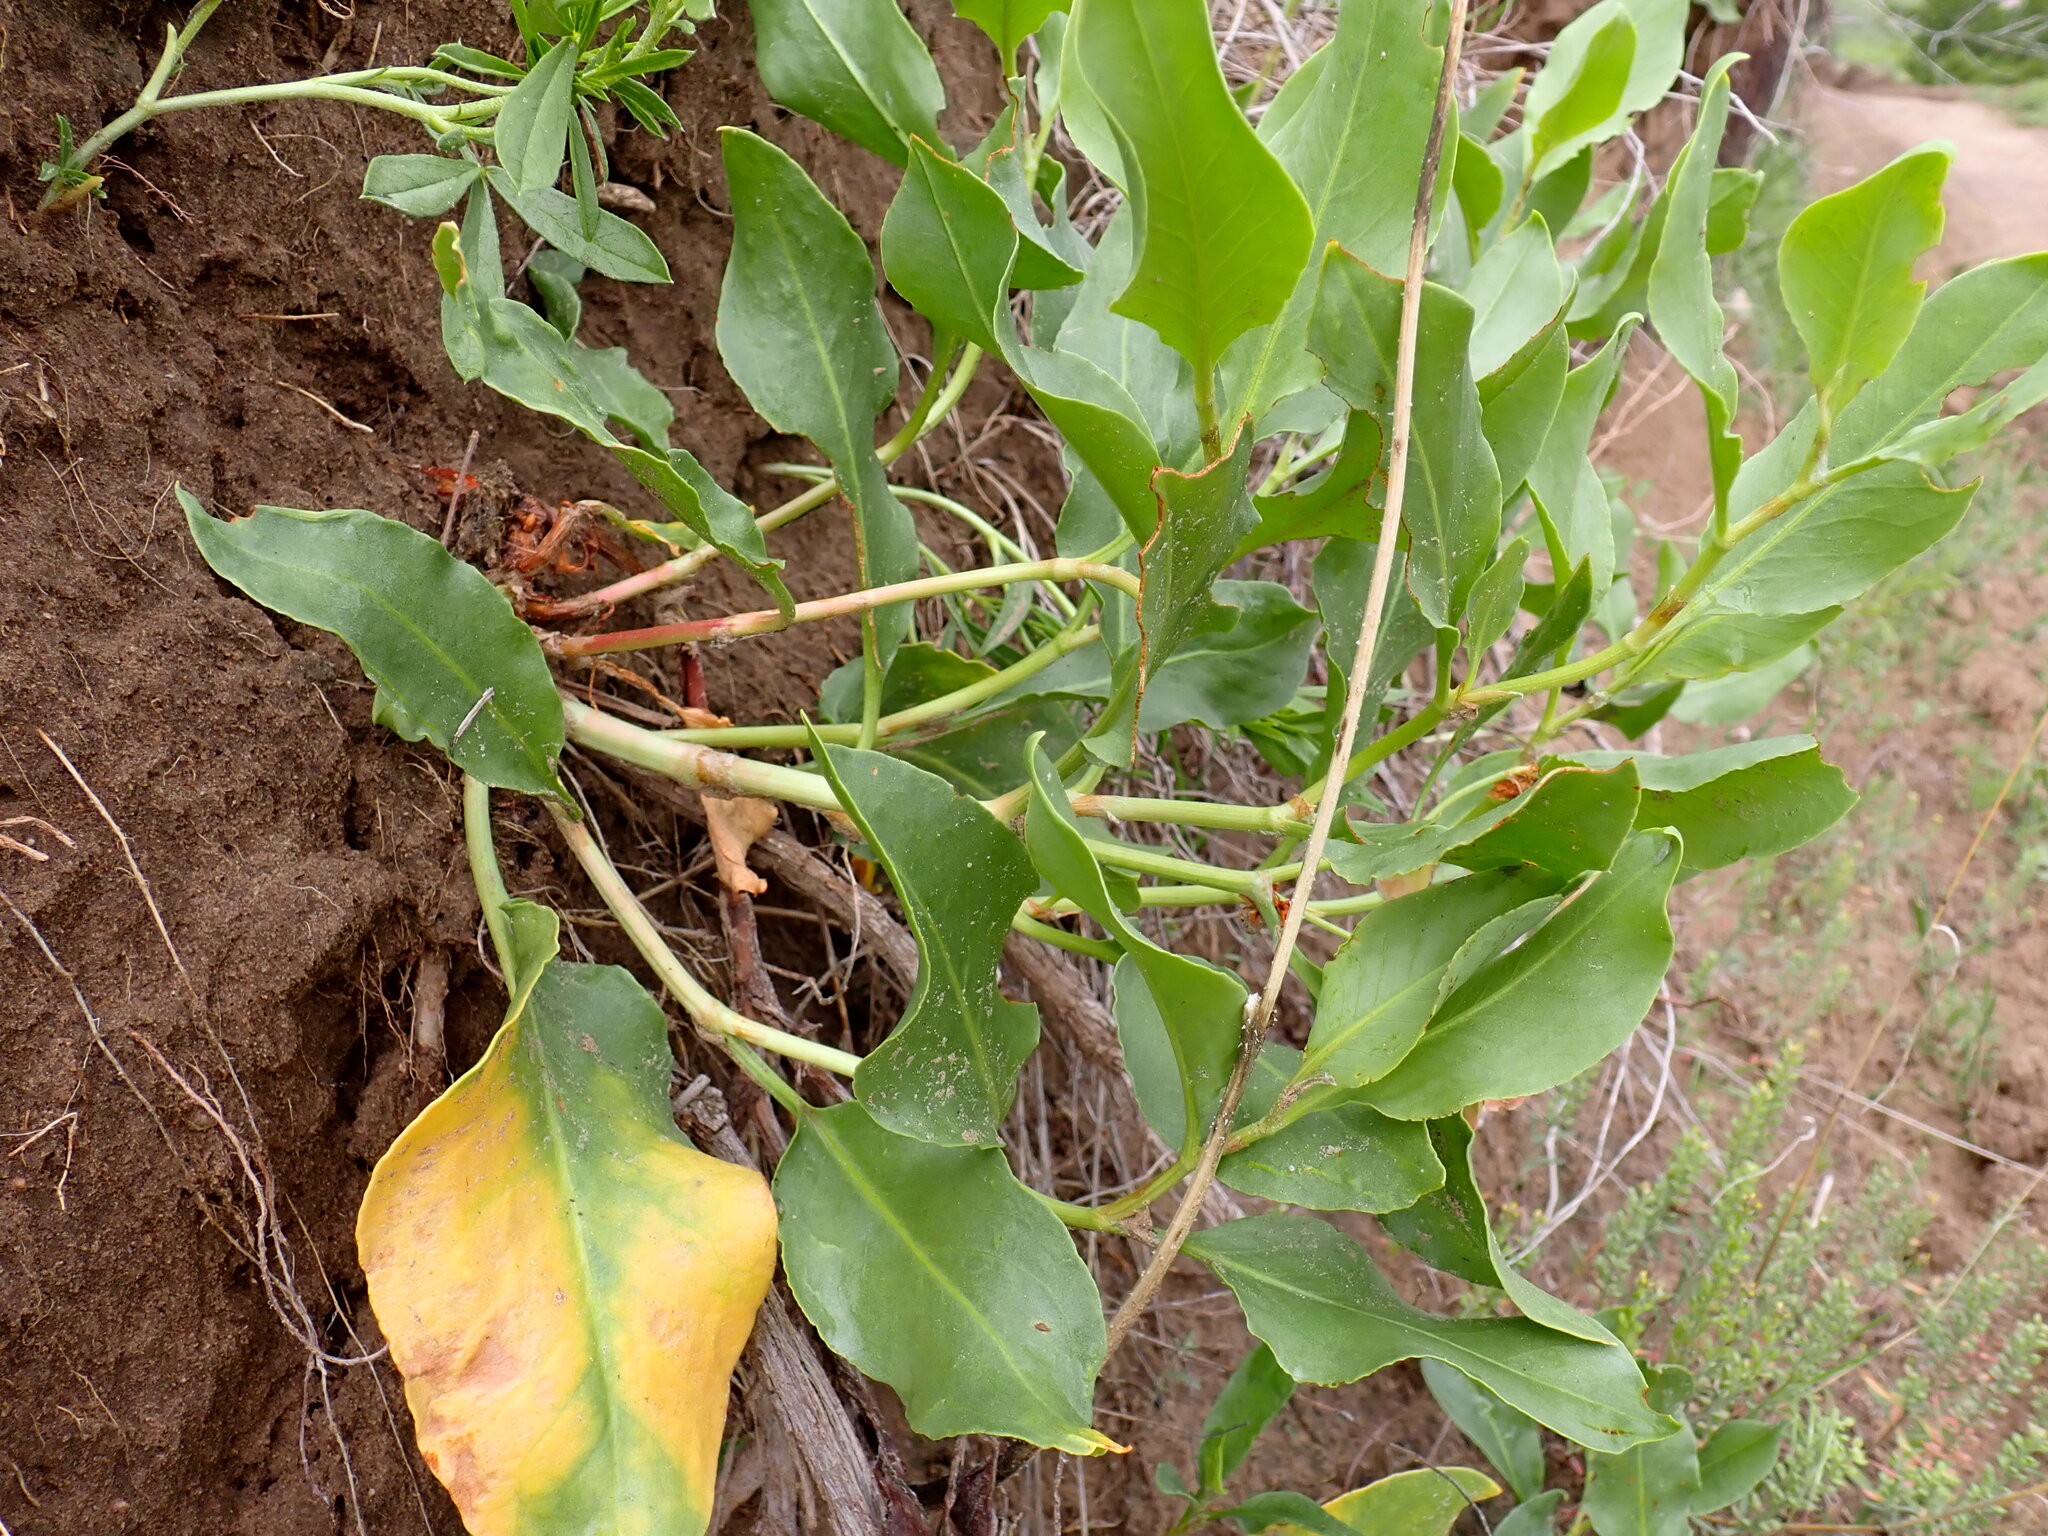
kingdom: Plantae
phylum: Tracheophyta
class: Magnoliopsida
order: Caryophyllales
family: Polygonaceae
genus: Rumex
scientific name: Rumex venosus
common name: Winged dock
